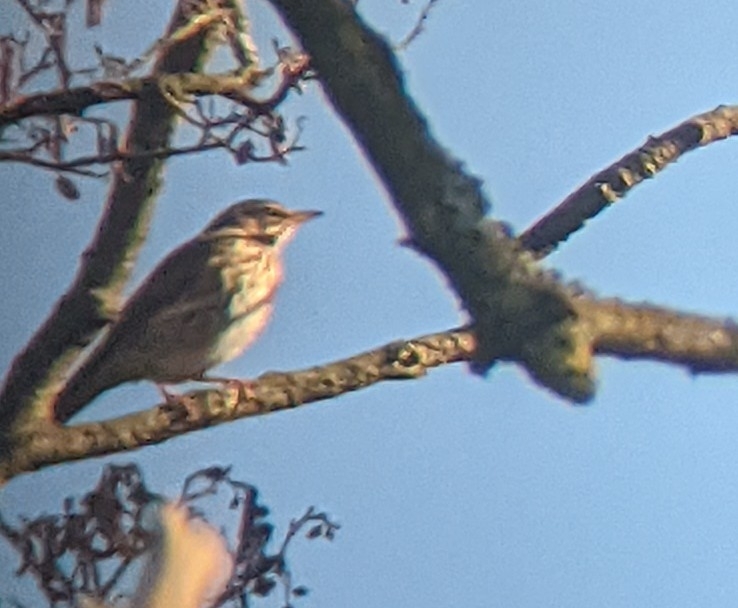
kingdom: Animalia
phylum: Chordata
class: Aves
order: Passeriformes
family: Turdidae
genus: Turdus
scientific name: Turdus iliacus
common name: Redwing
